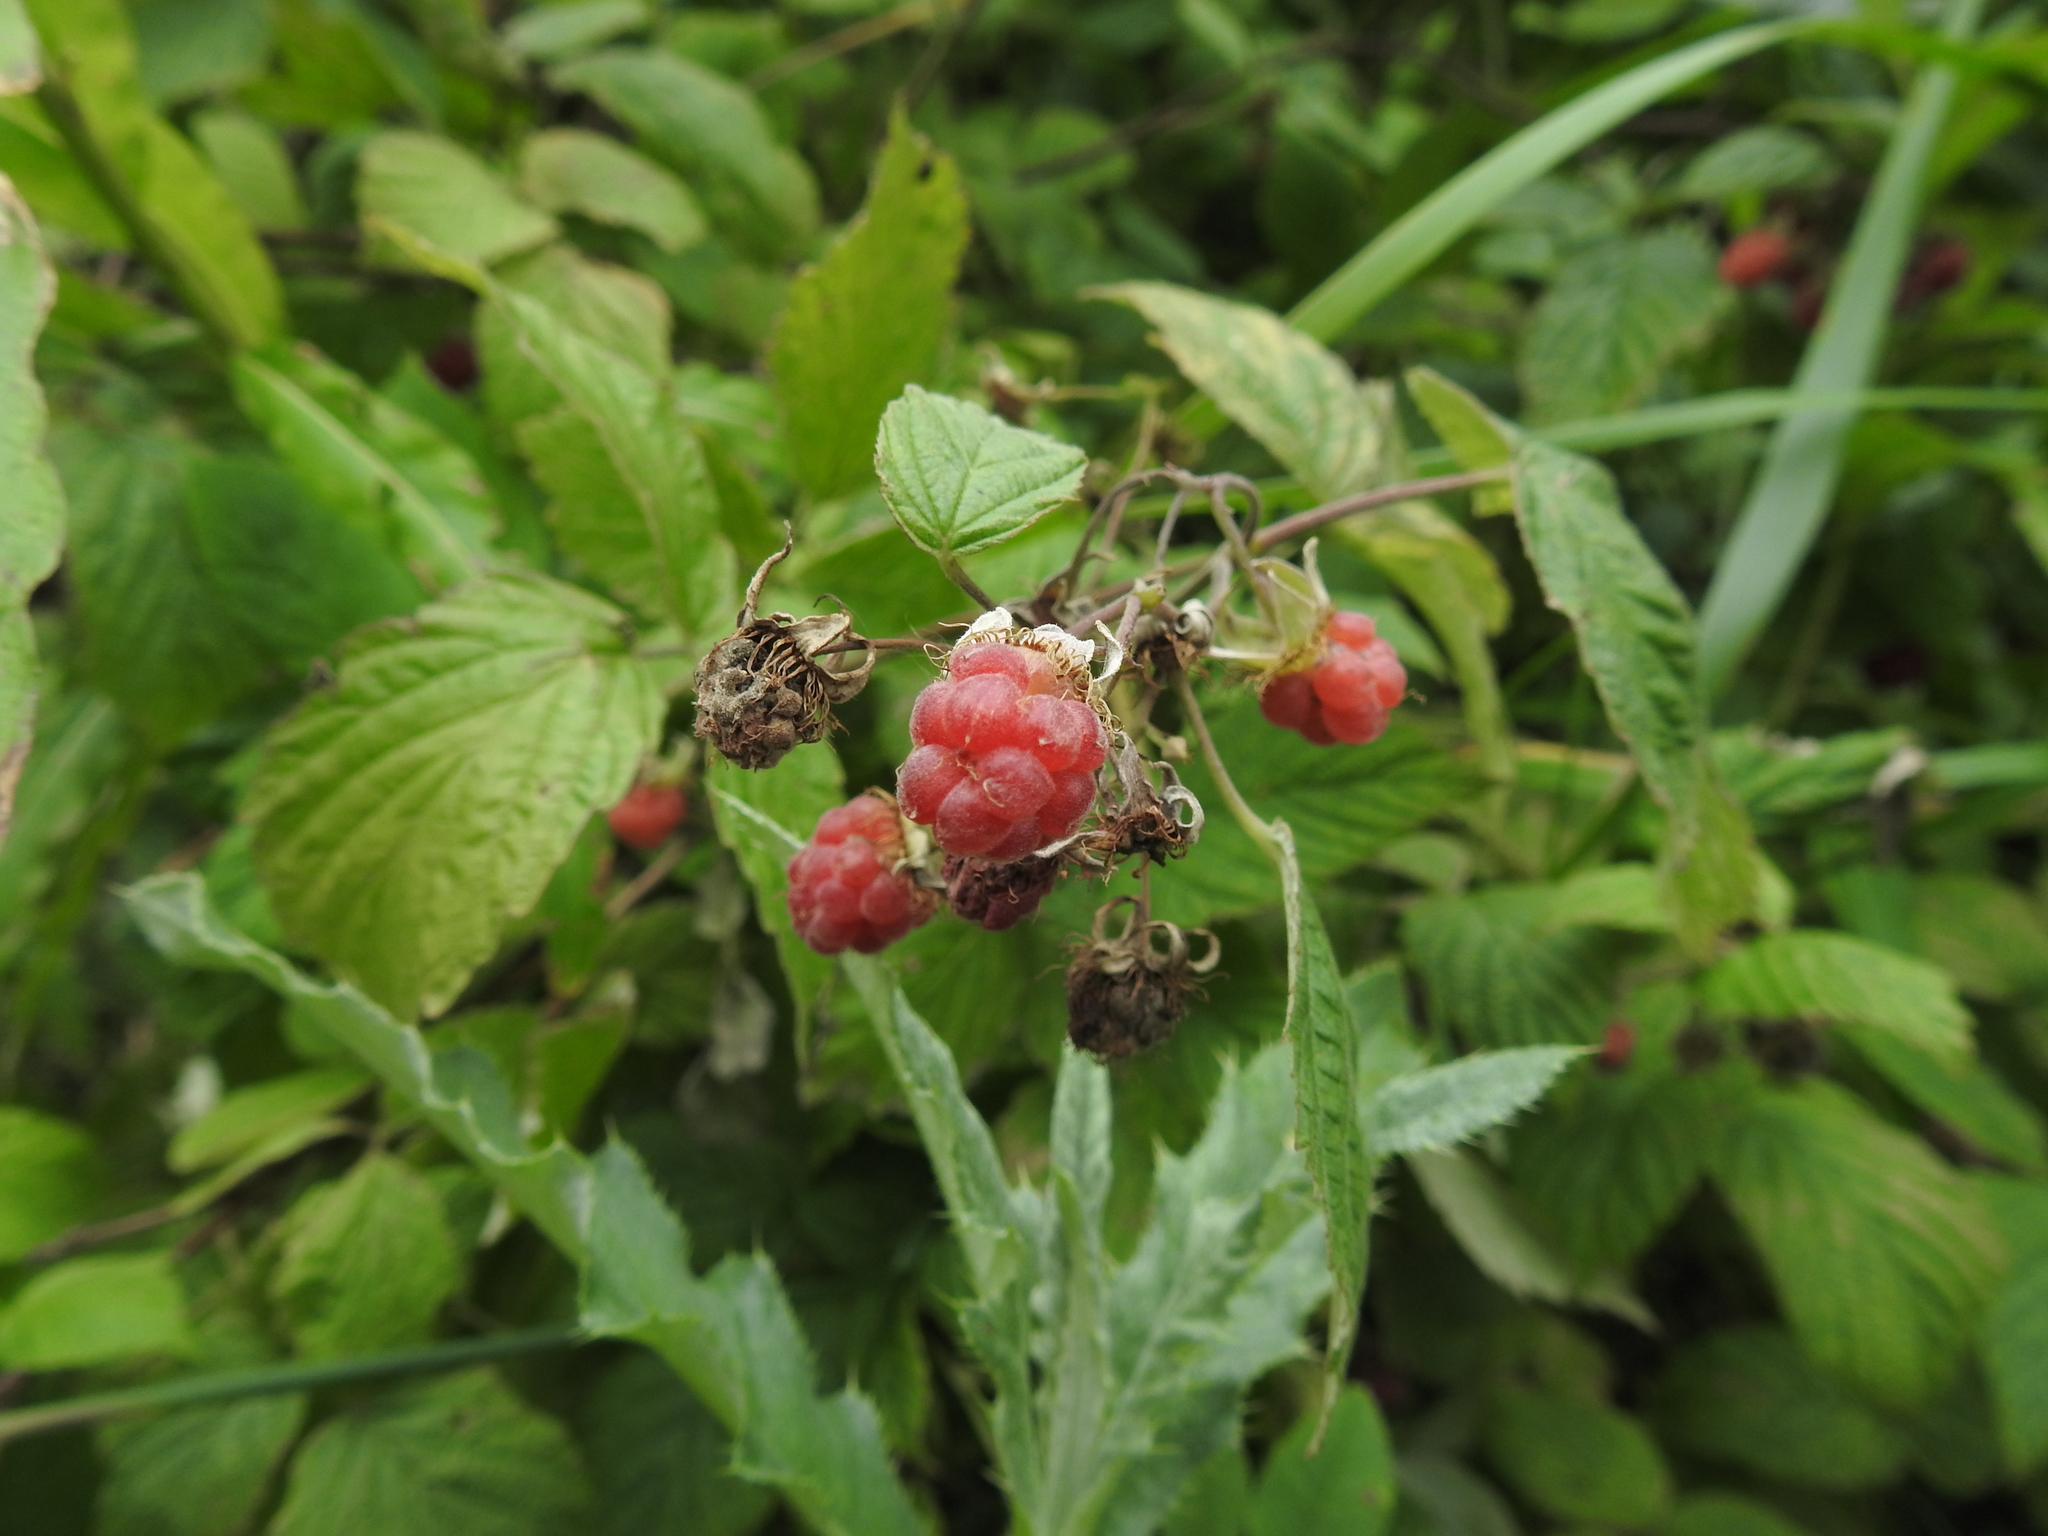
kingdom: Plantae
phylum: Tracheophyta
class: Magnoliopsida
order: Rosales
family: Rosaceae
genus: Rubus
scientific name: Rubus idaeus
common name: Raspberry
